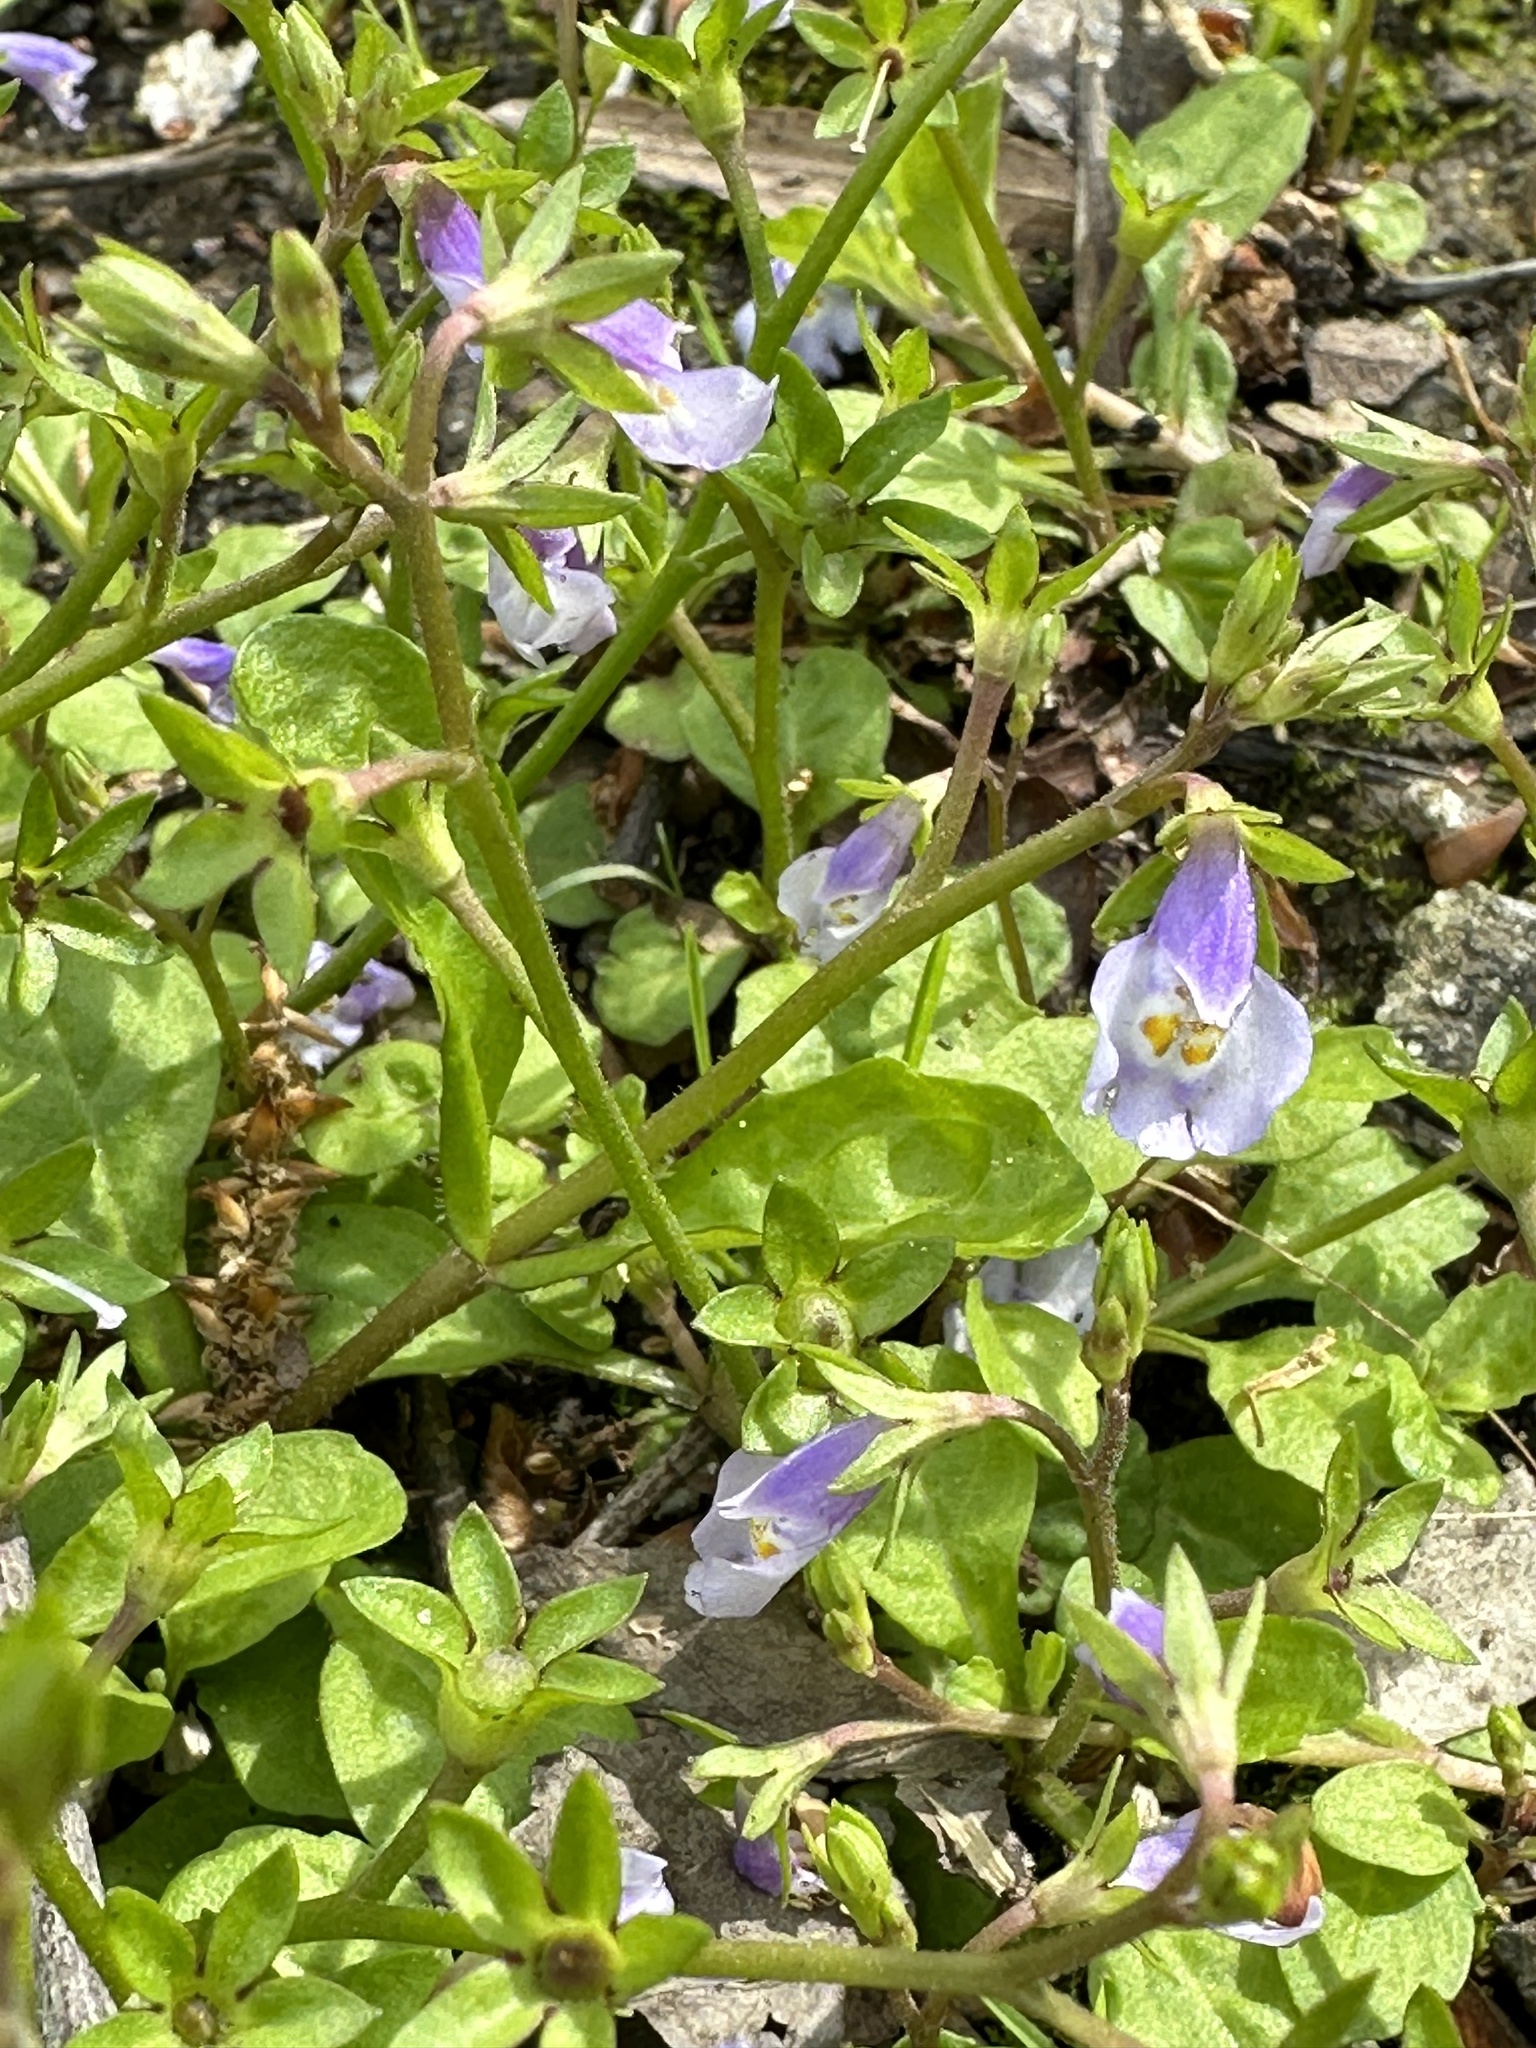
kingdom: Plantae
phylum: Tracheophyta
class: Magnoliopsida
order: Lamiales
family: Mazaceae
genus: Mazus
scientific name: Mazus pumilus
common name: Japanese mazus
